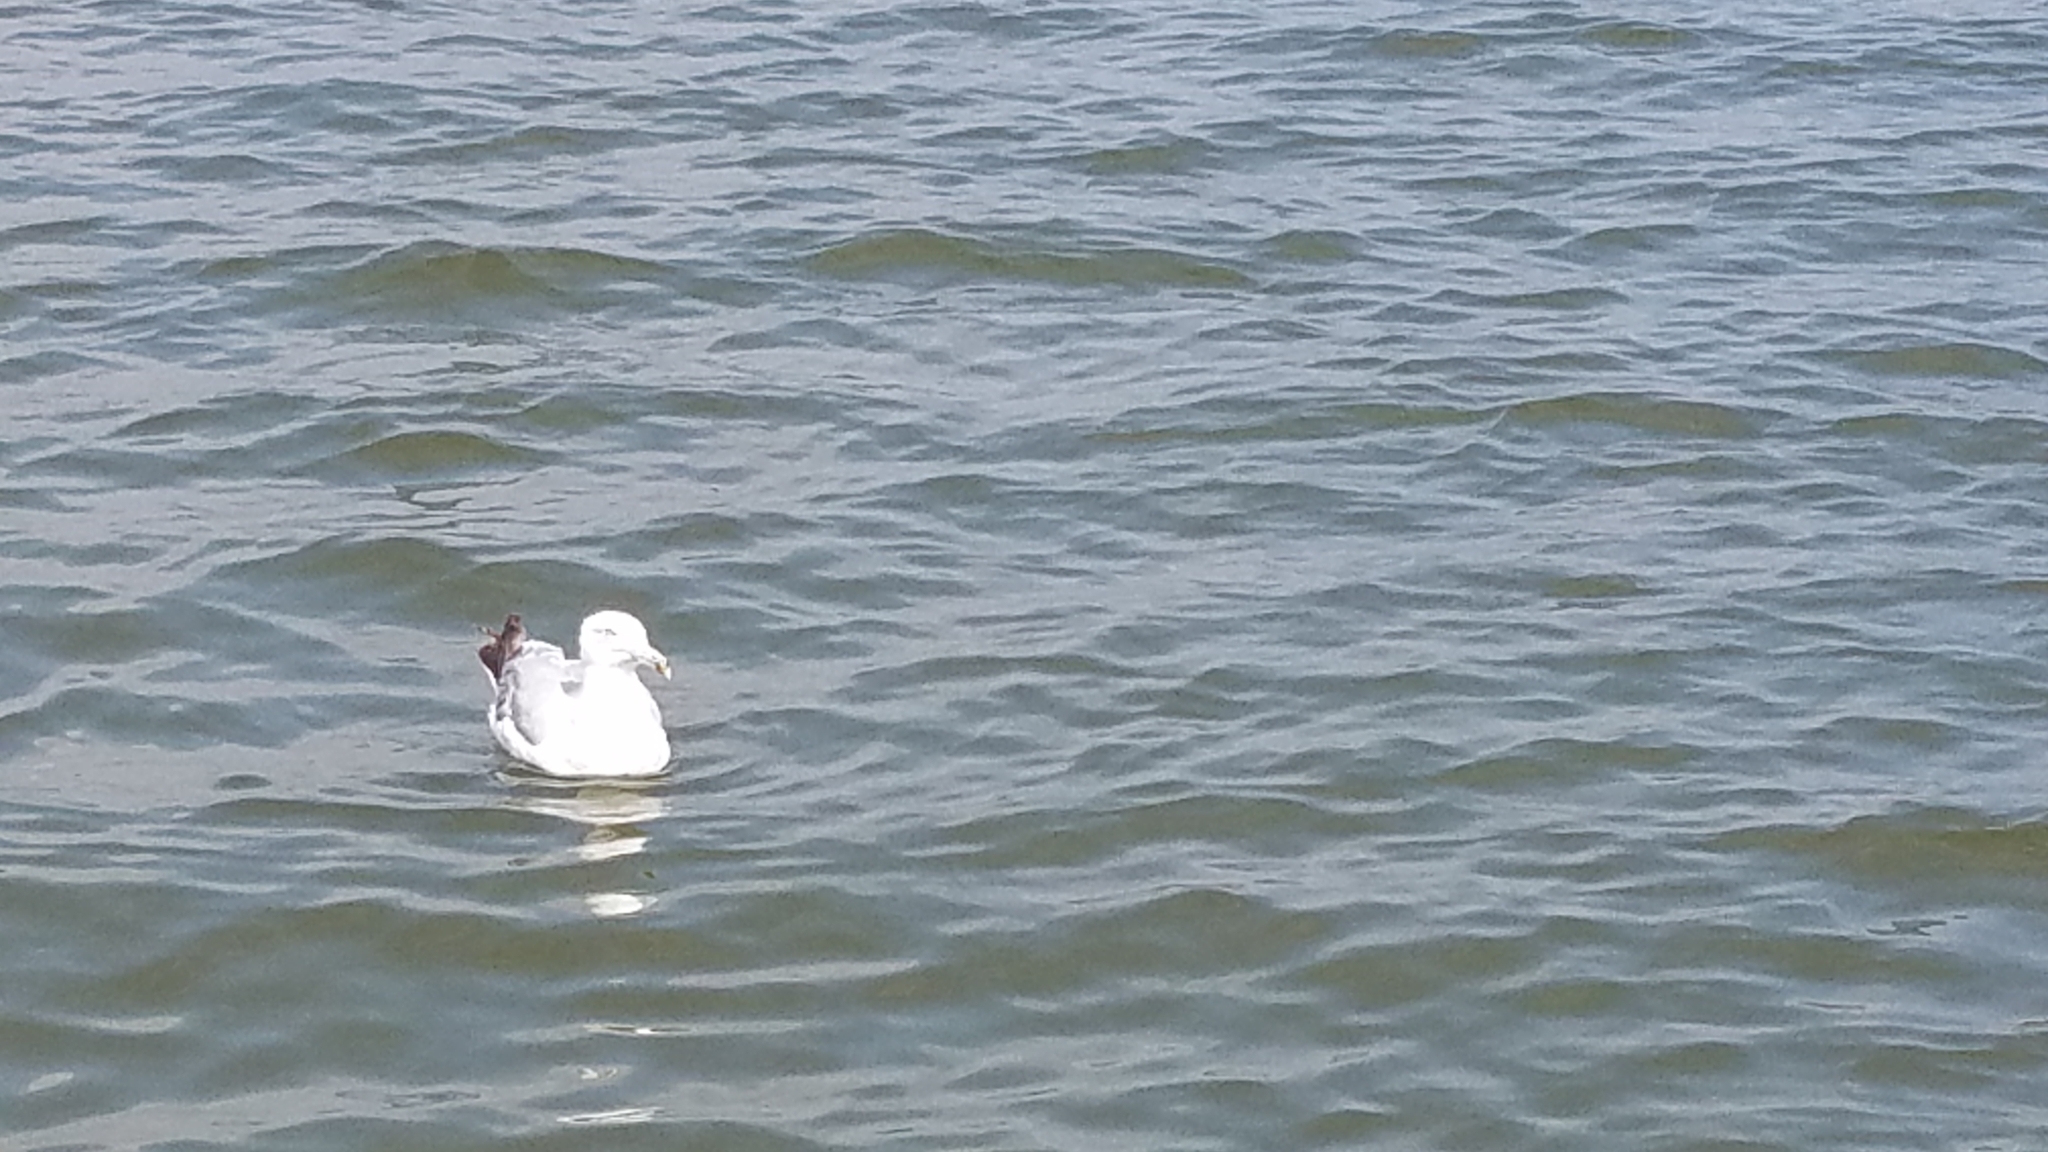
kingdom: Animalia
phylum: Chordata
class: Aves
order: Charadriiformes
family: Laridae
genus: Larus
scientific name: Larus delawarensis
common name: Ring-billed gull
